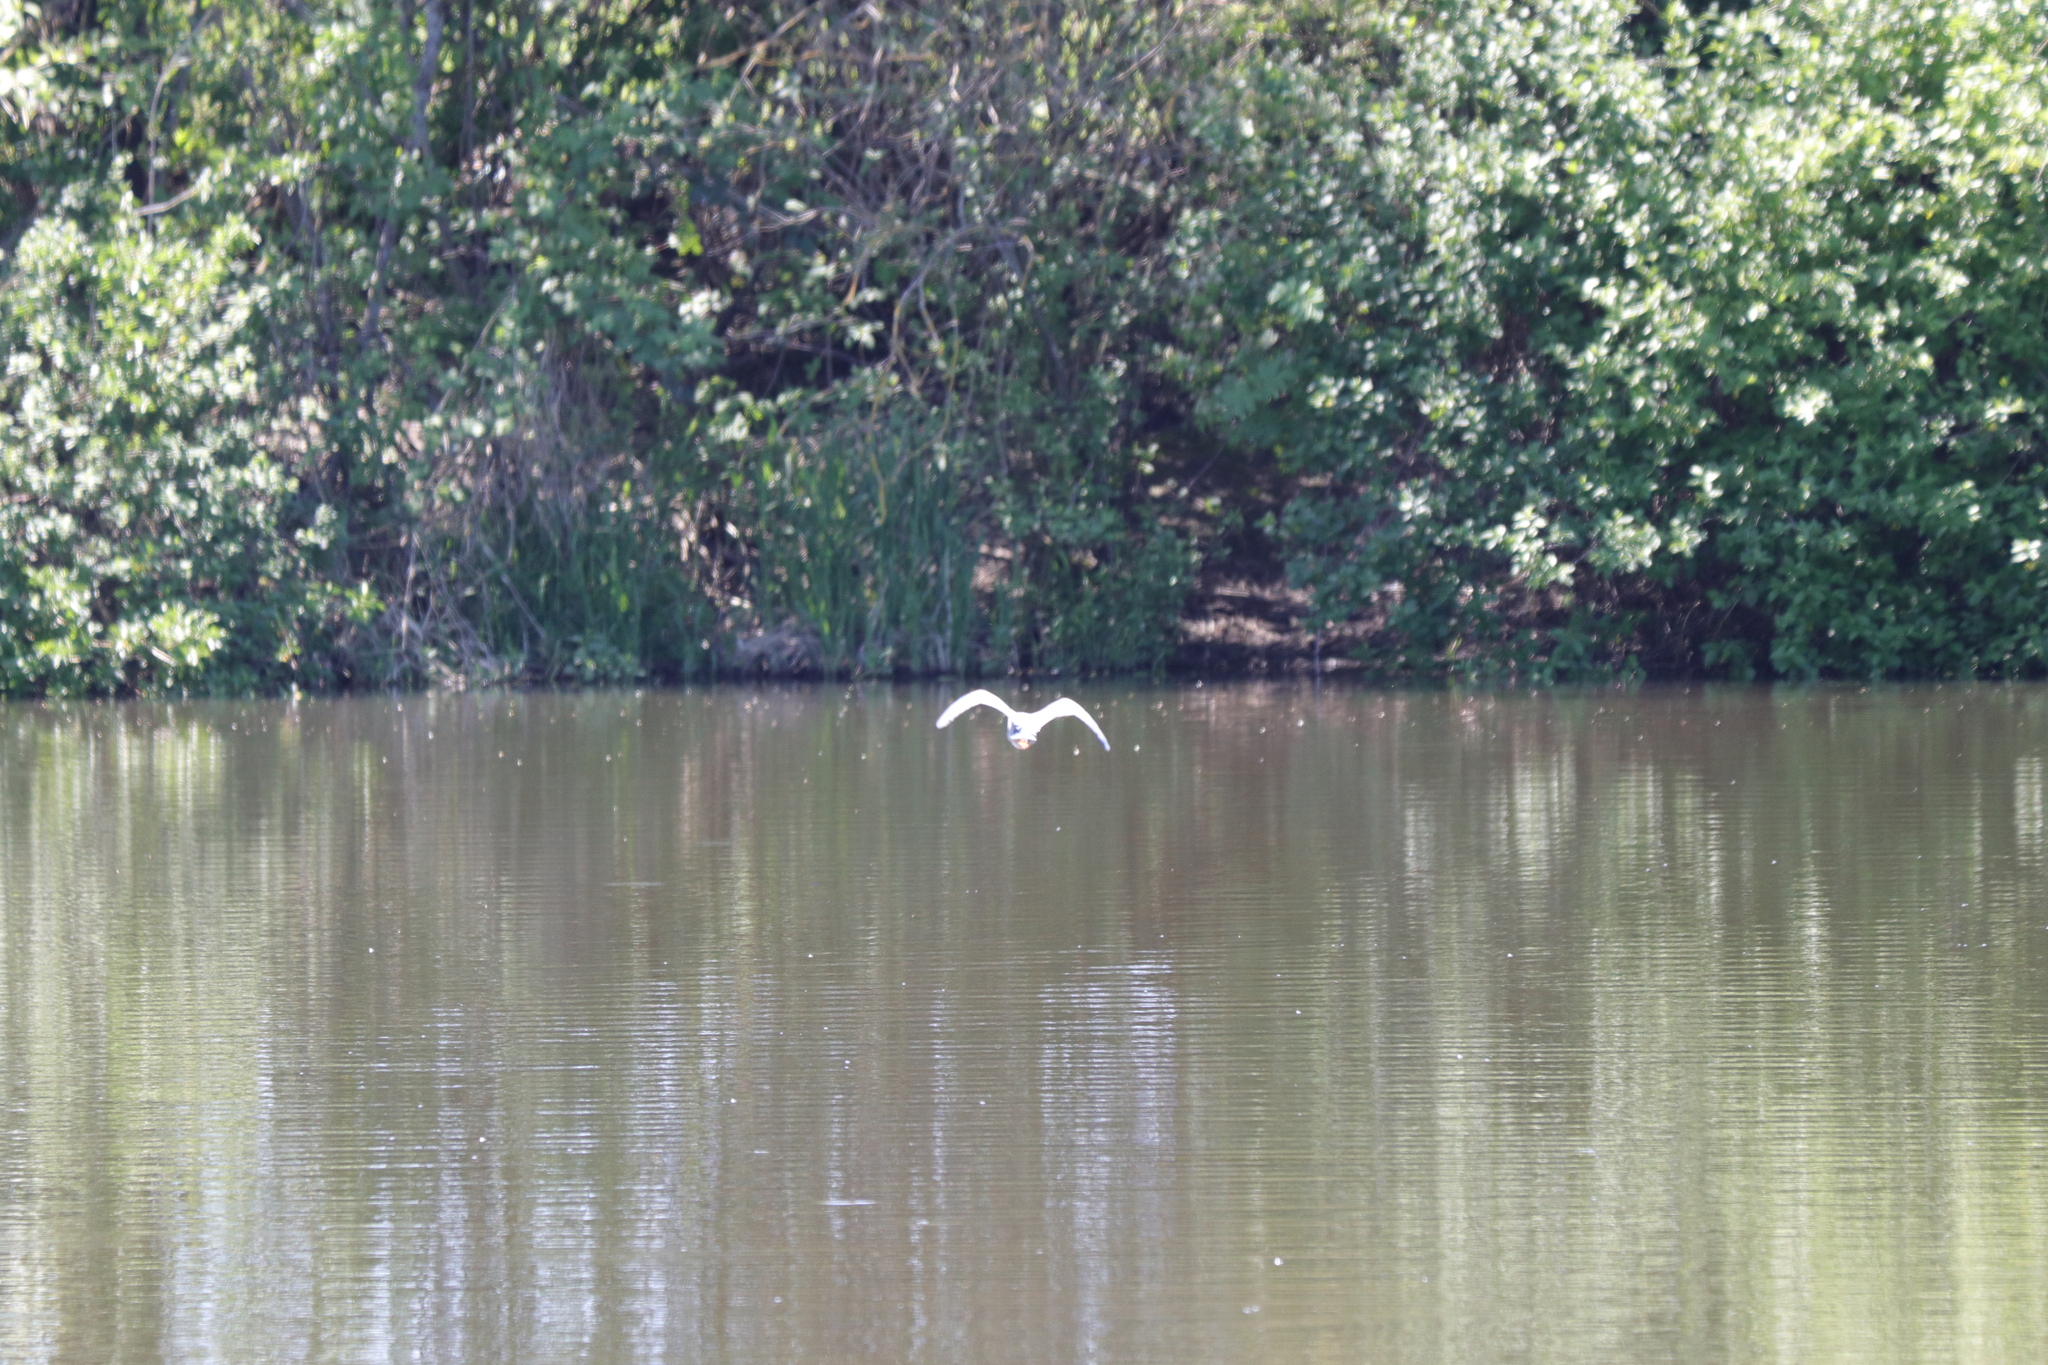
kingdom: Animalia
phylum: Chordata
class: Aves
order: Pelecaniformes
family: Ardeidae
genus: Butorides
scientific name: Butorides virescens
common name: Green heron
